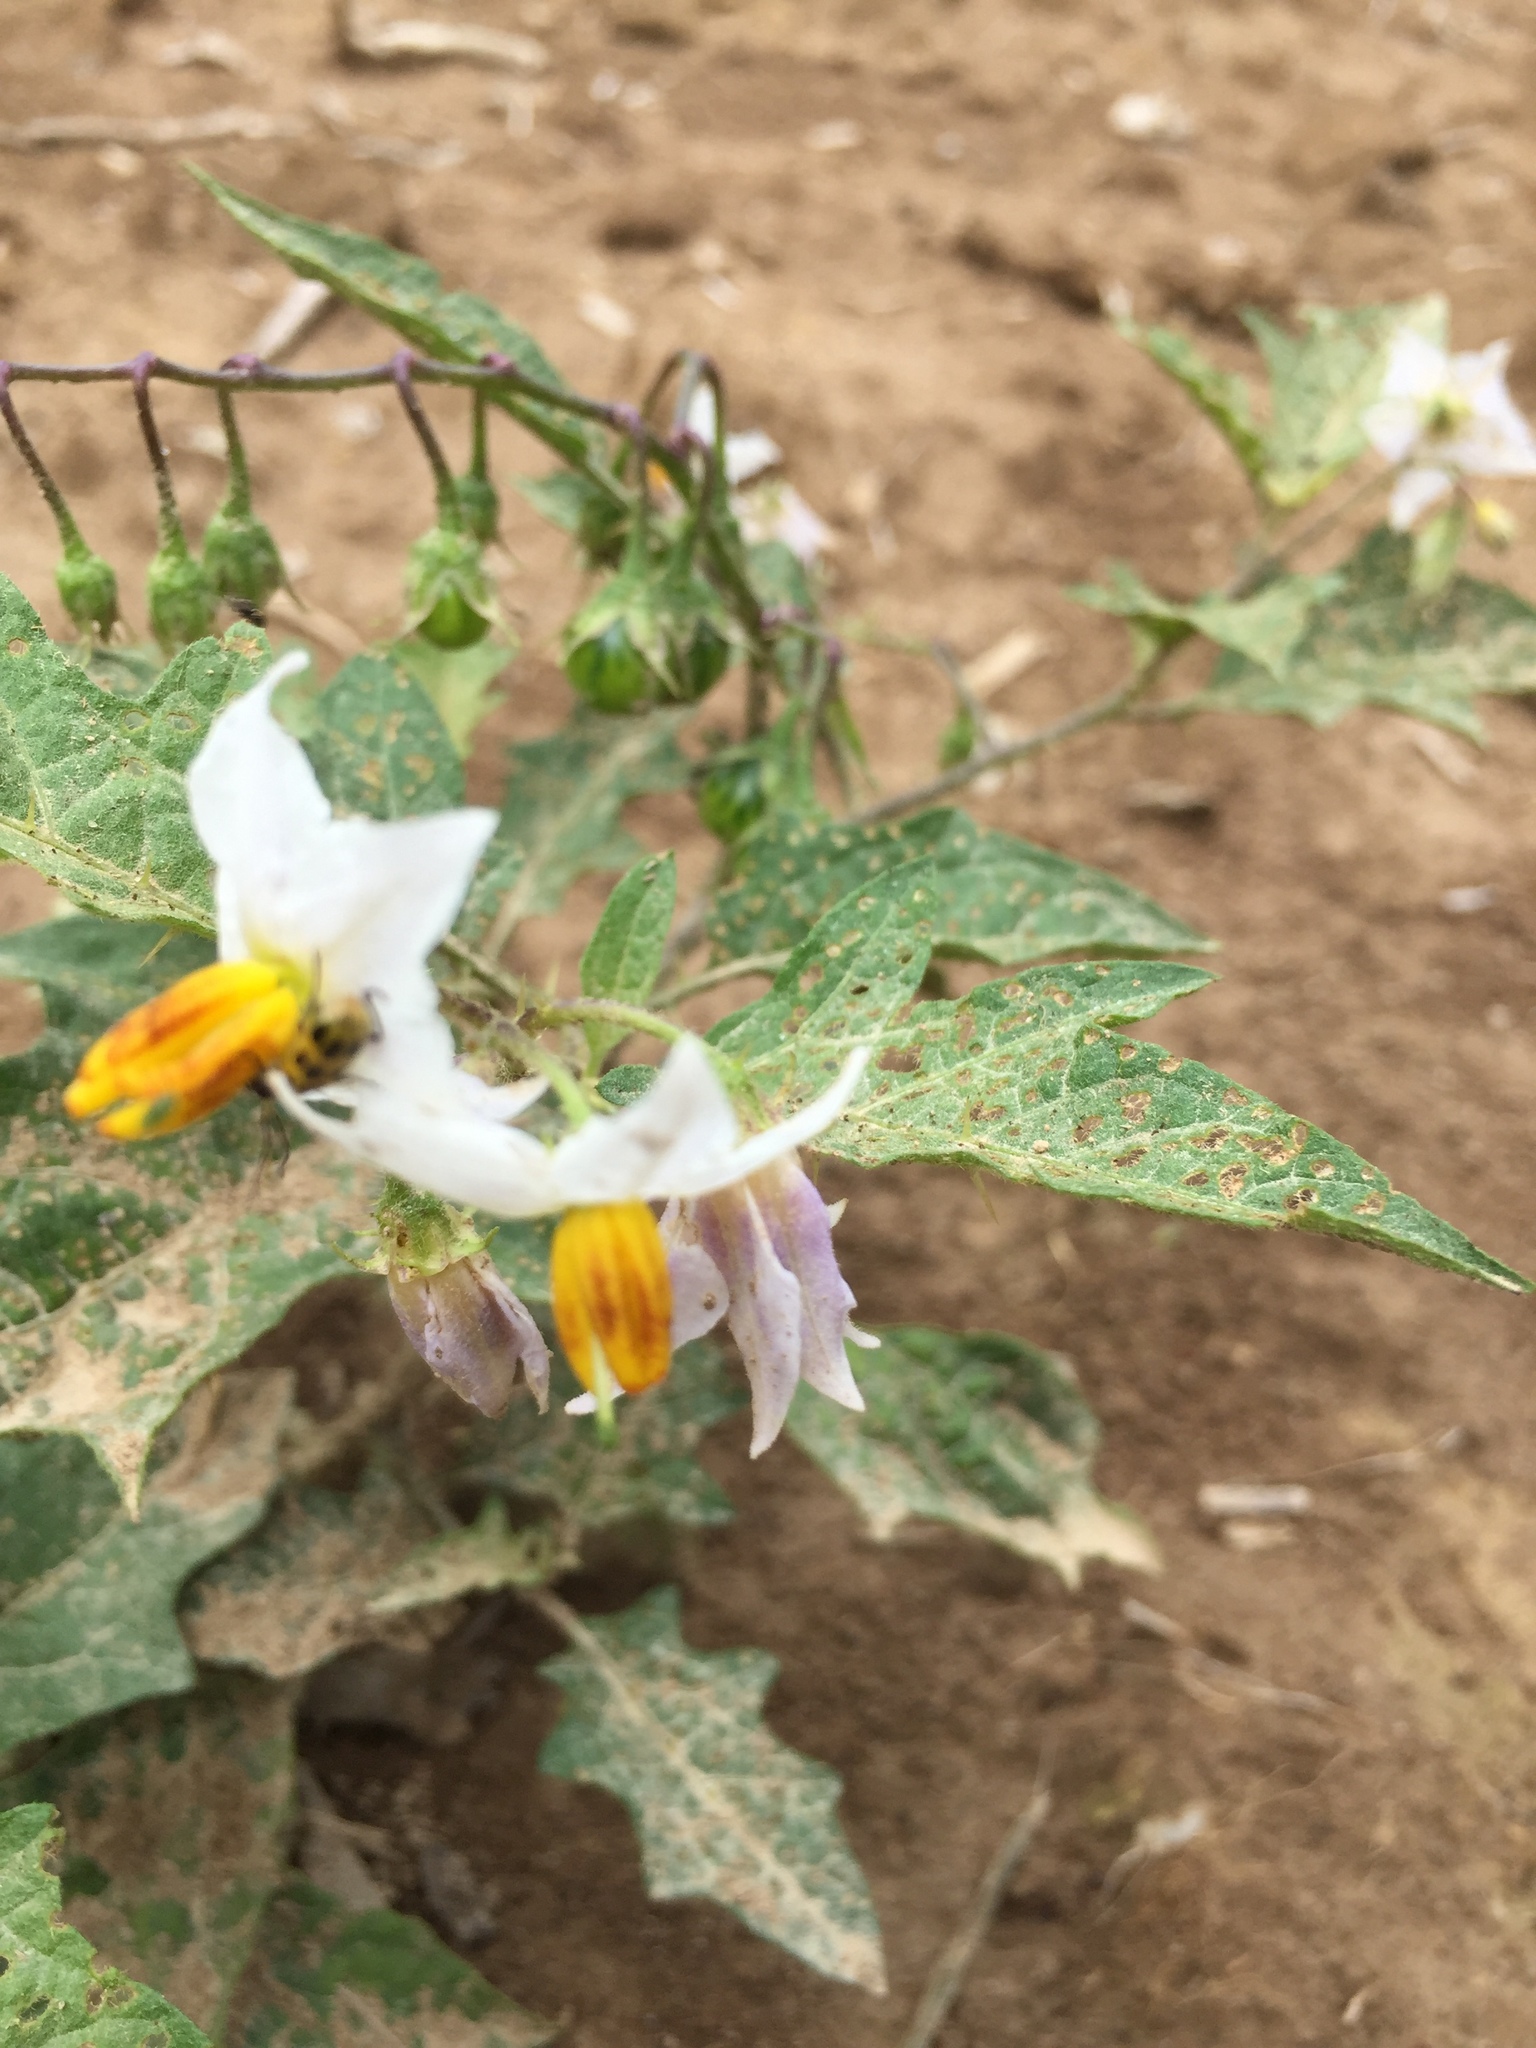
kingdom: Plantae
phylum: Tracheophyta
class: Magnoliopsida
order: Solanales
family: Solanaceae
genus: Solanum
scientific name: Solanum carolinense
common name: Horse-nettle
